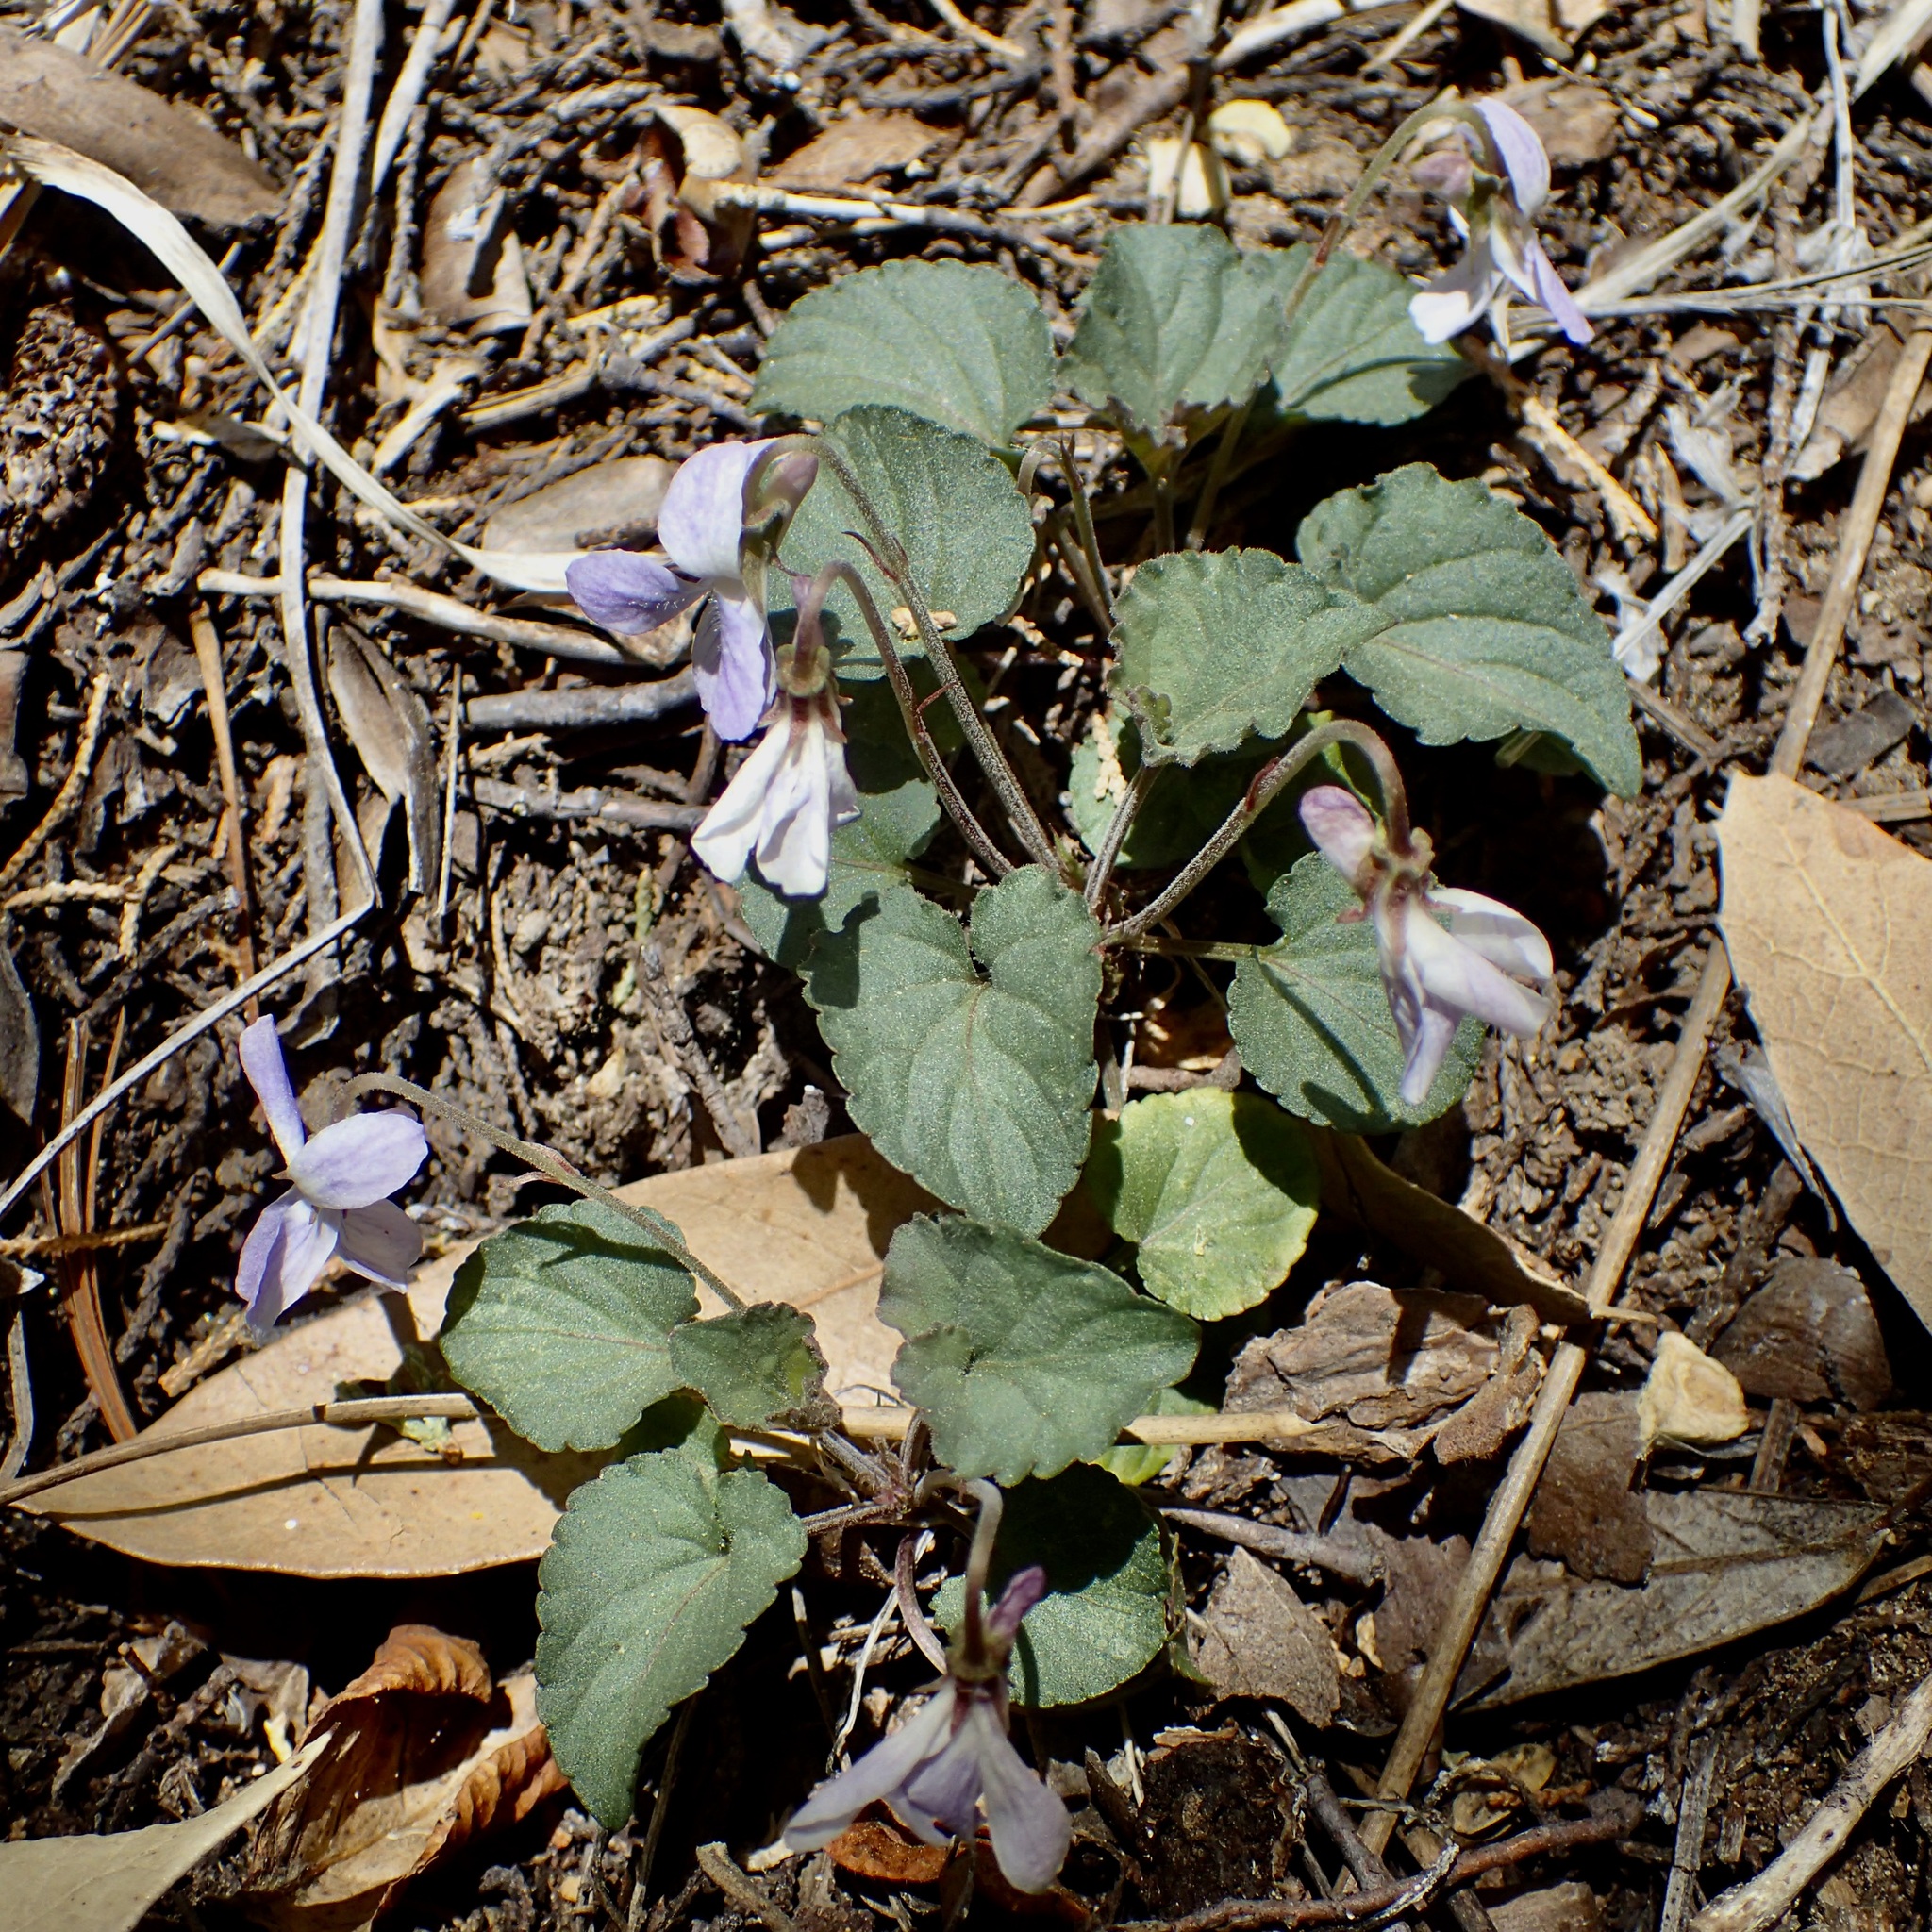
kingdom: Plantae
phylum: Tracheophyta
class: Magnoliopsida
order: Malpighiales
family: Violaceae
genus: Viola
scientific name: Viola umbraticola
